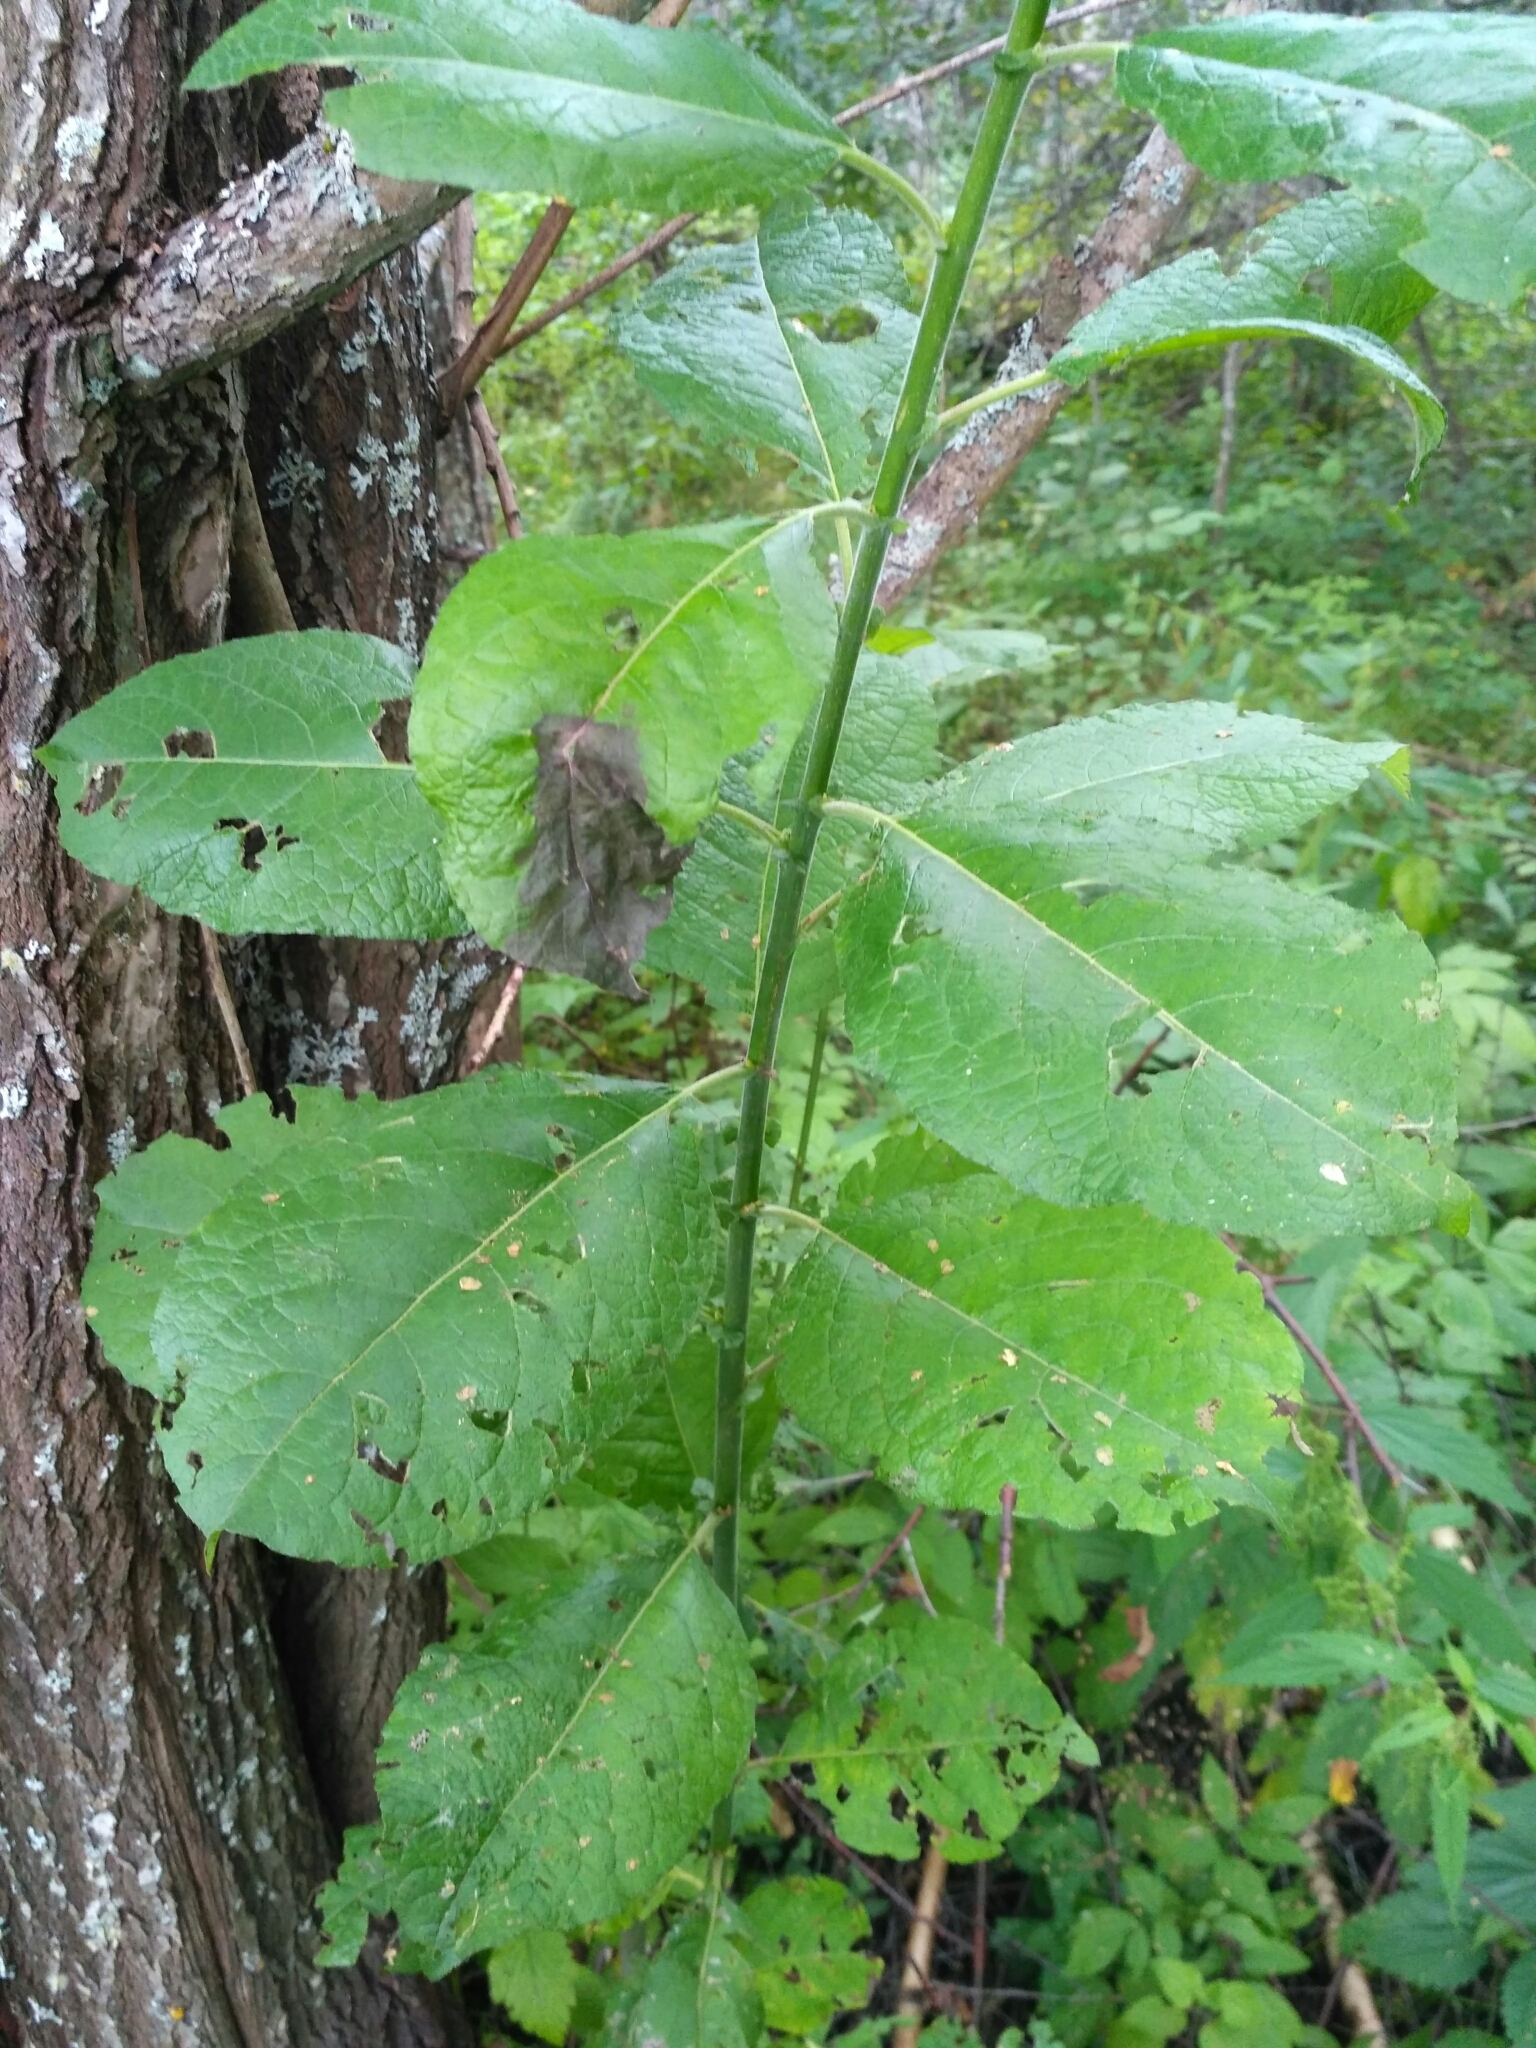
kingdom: Plantae
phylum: Tracheophyta
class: Magnoliopsida
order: Malpighiales
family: Salicaceae
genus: Salix
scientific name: Salix caprea
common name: Goat willow
